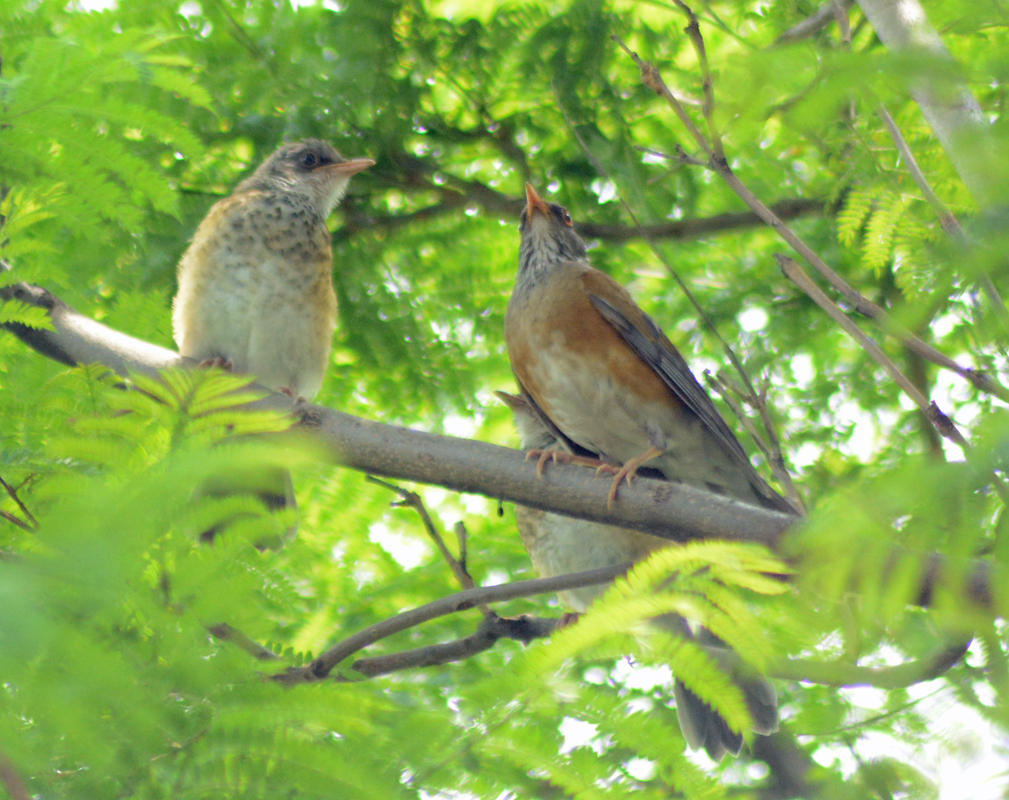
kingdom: Animalia
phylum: Chordata
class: Aves
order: Passeriformes
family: Turdidae
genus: Turdus
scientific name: Turdus rufopalliatus
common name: Rufous-backed robin
